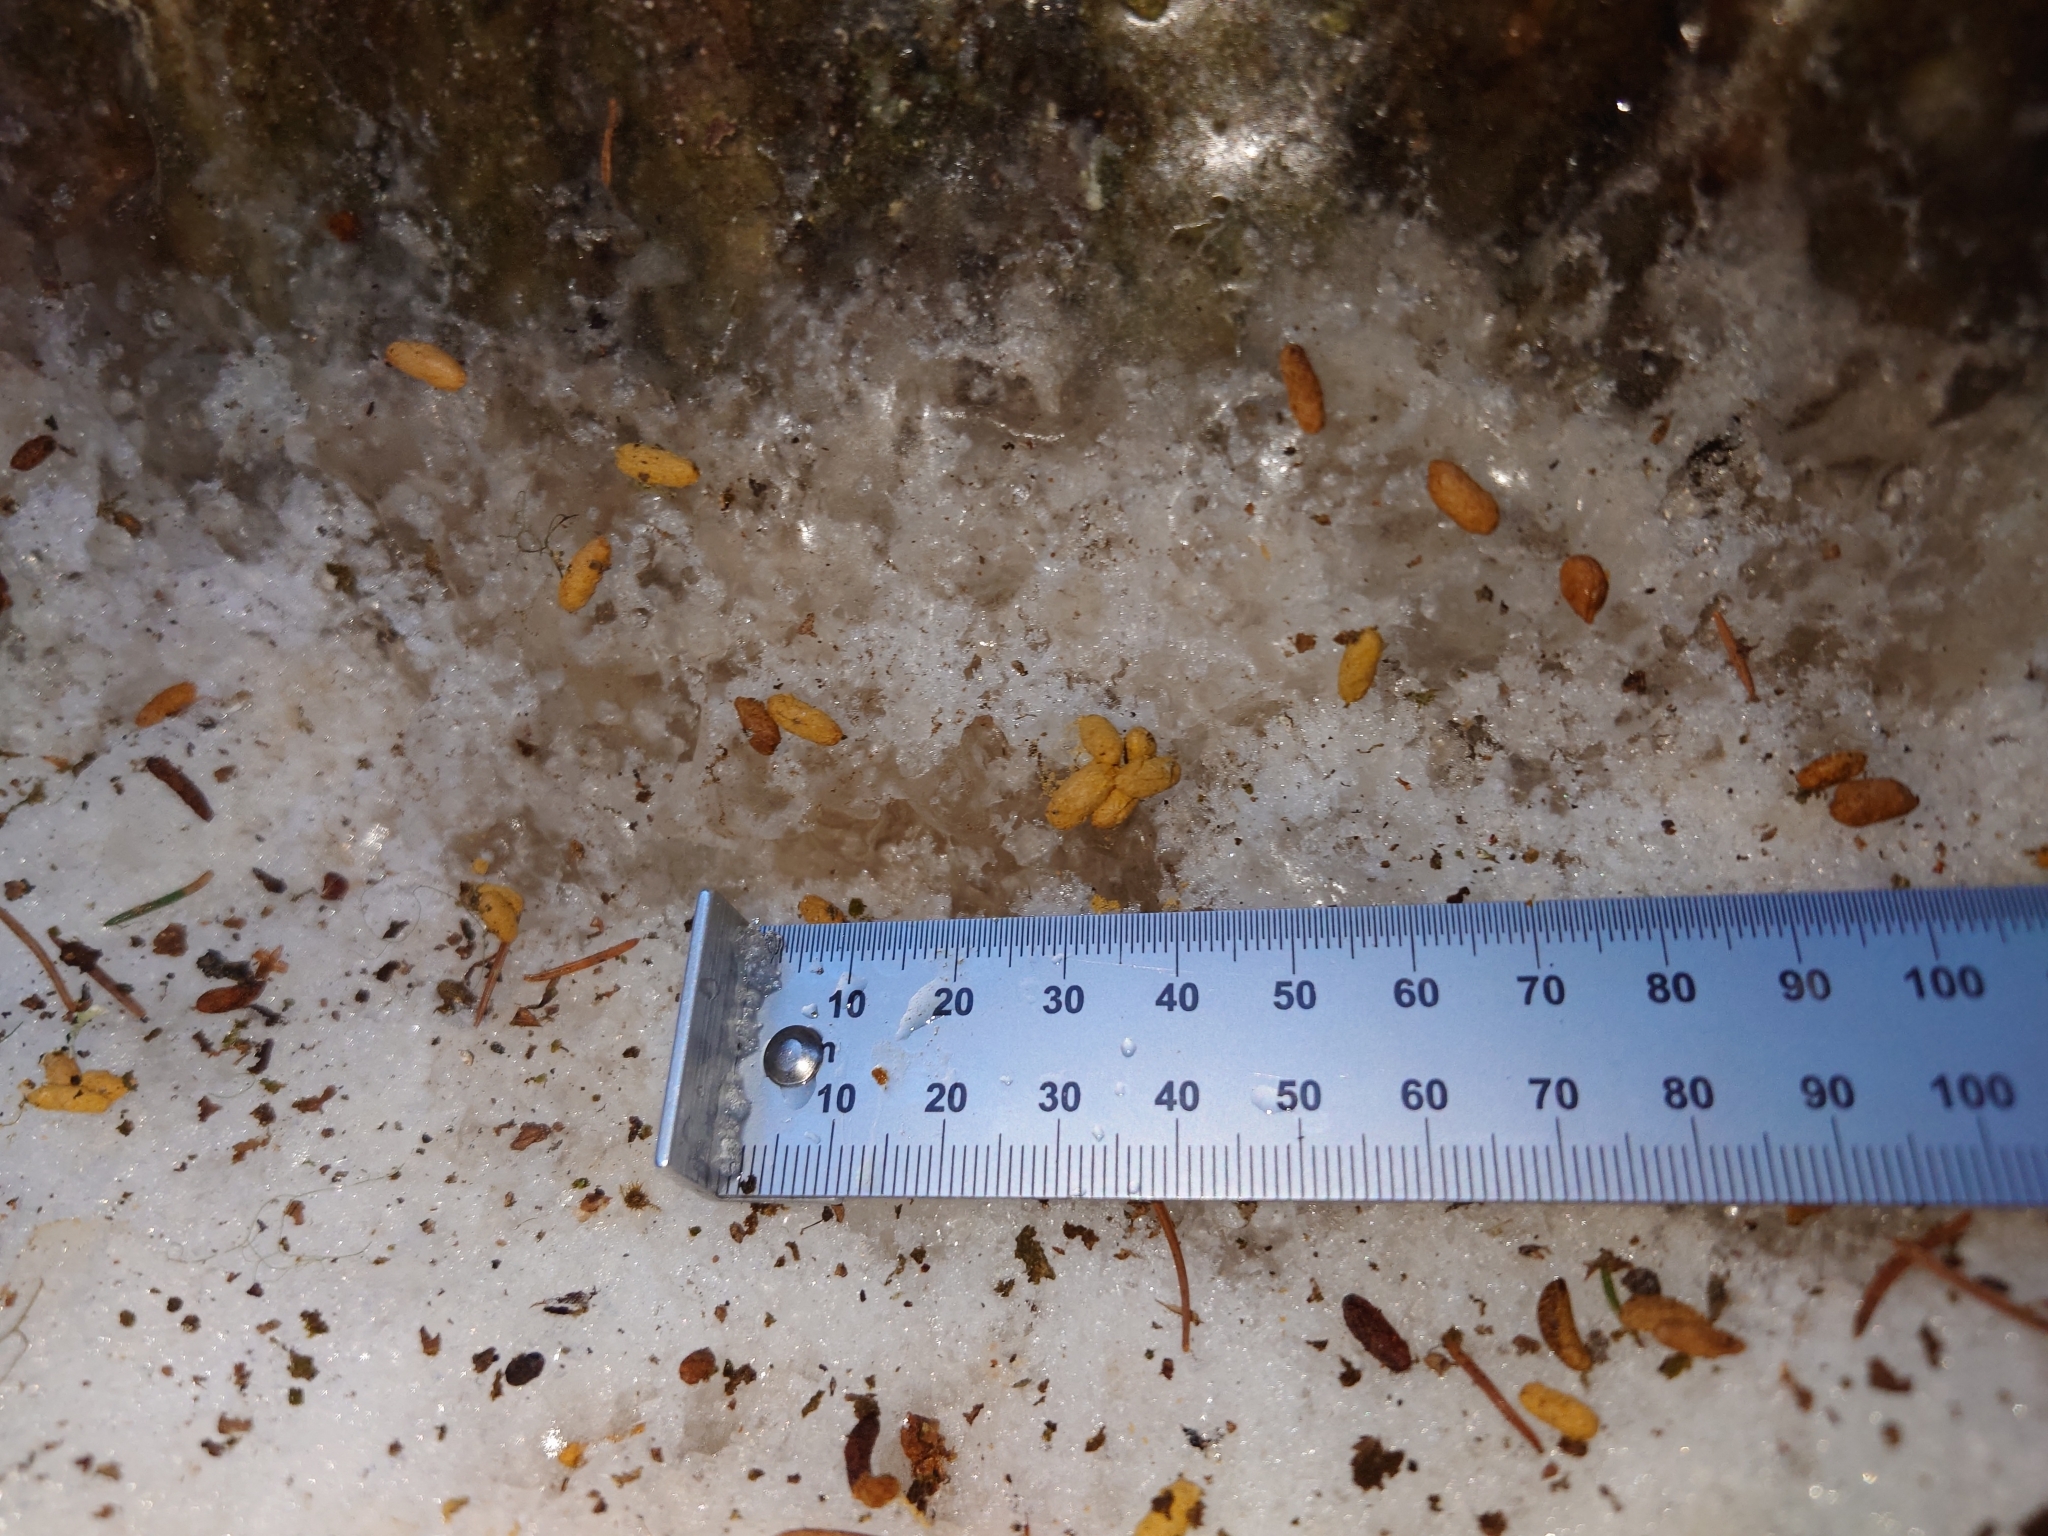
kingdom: Animalia
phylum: Chordata
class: Mammalia
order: Rodentia
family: Sciuridae
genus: Pteromys
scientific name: Pteromys volans
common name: Siberian flying squirrel
